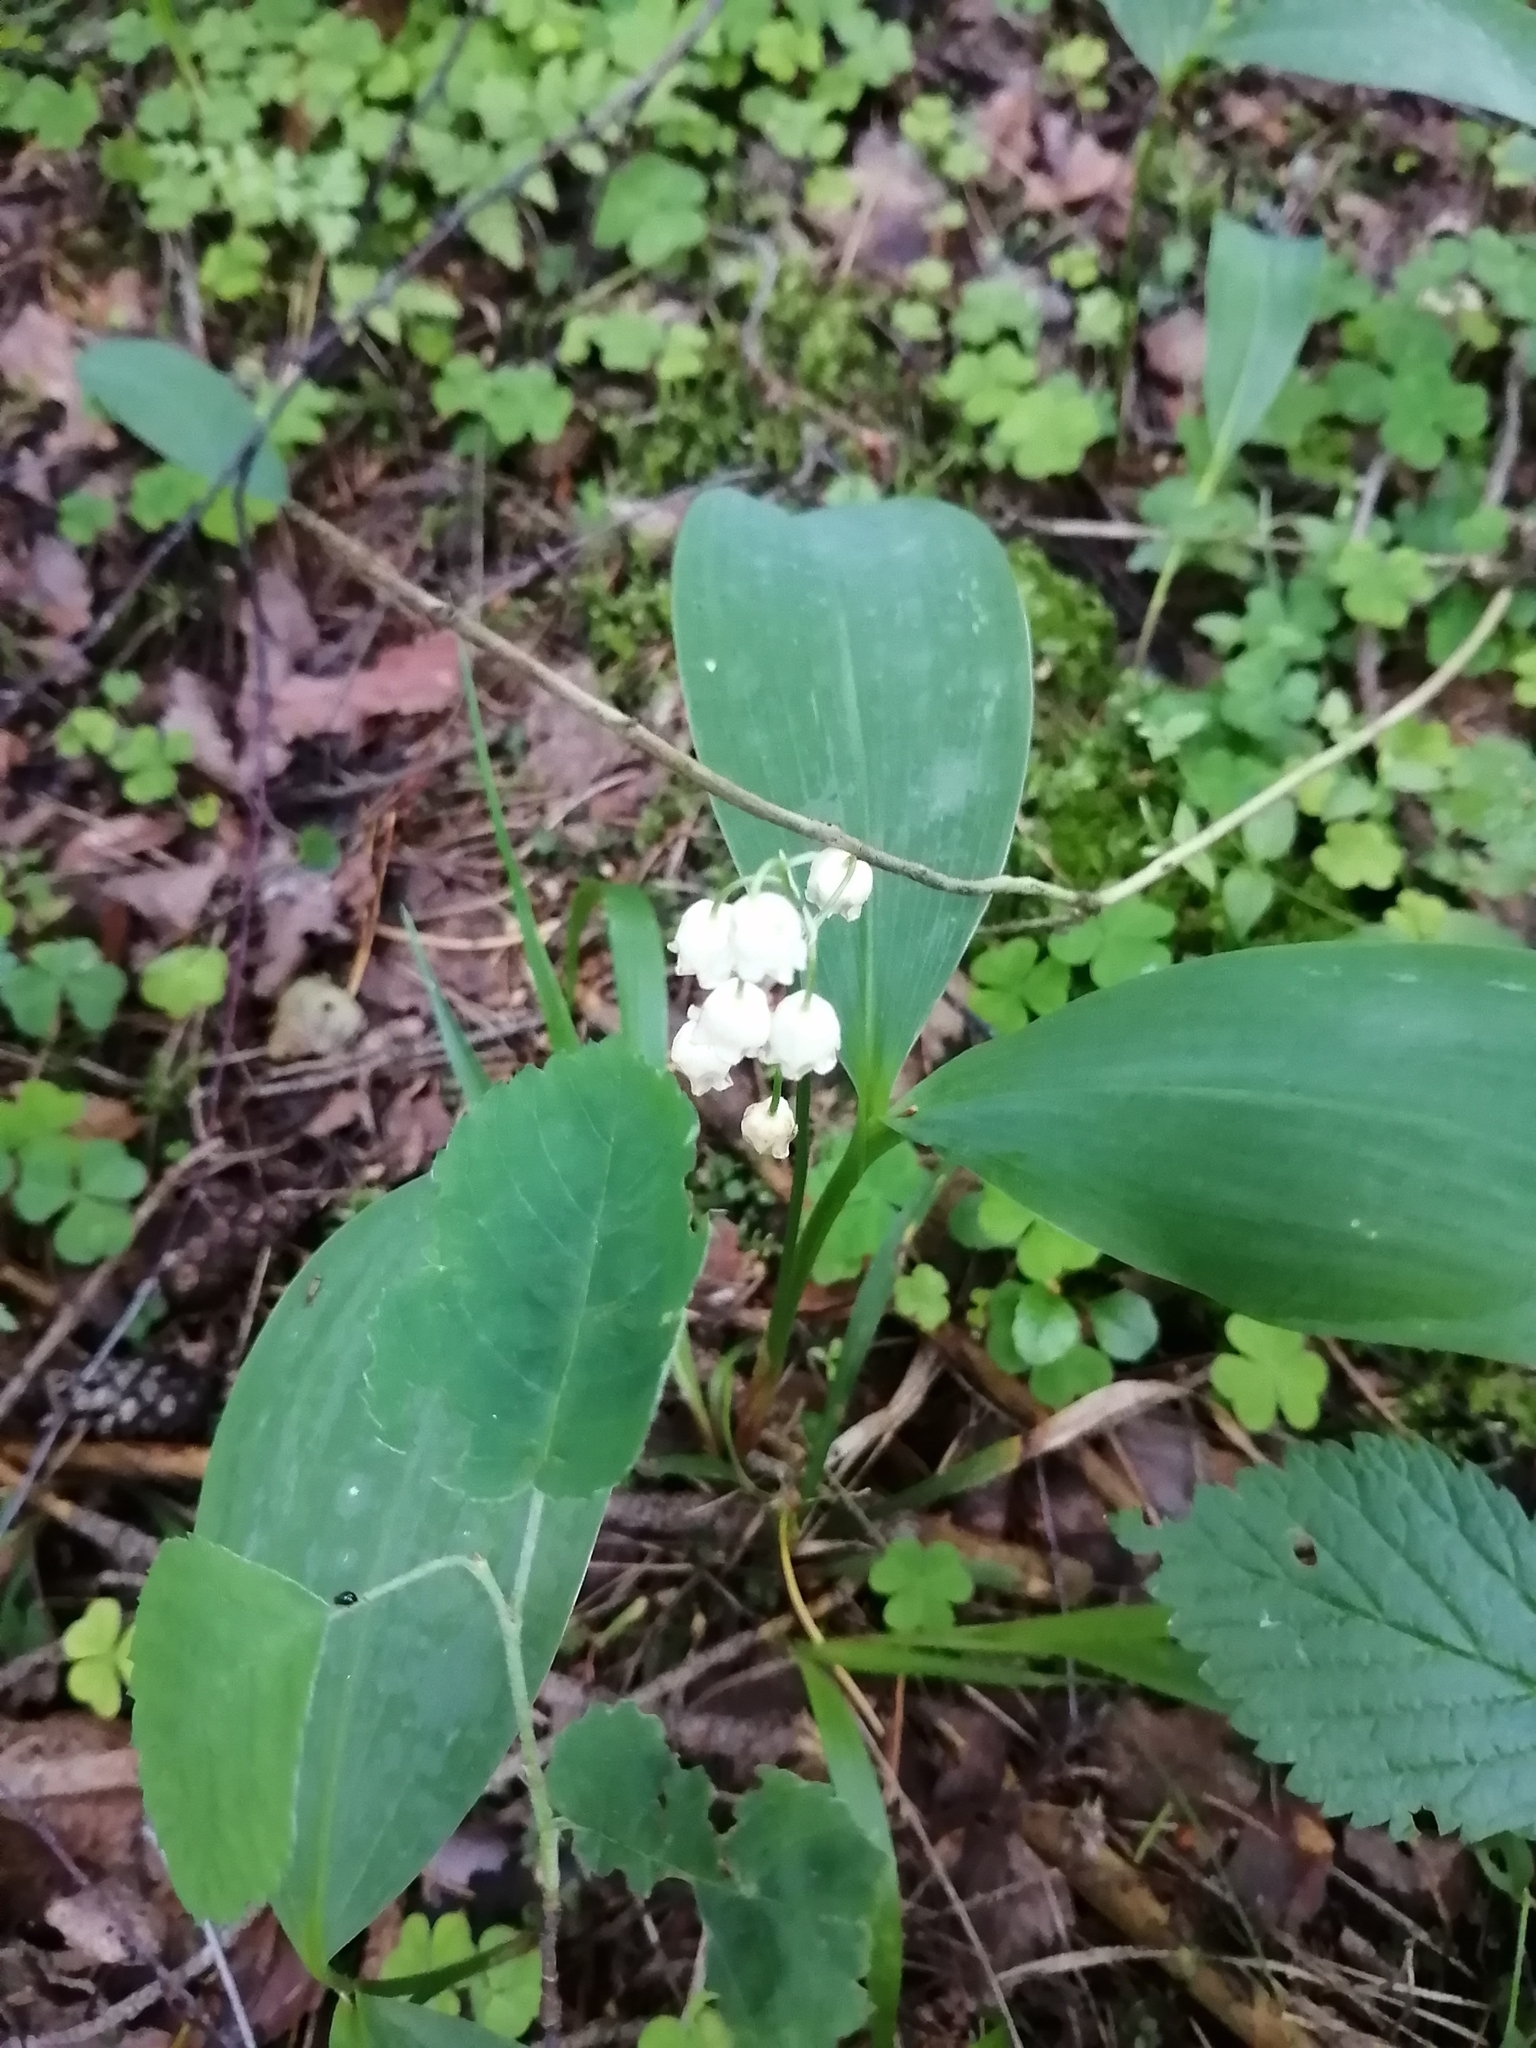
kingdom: Plantae
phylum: Tracheophyta
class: Liliopsida
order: Asparagales
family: Asparagaceae
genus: Convallaria
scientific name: Convallaria majalis
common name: Lily-of-the-valley
